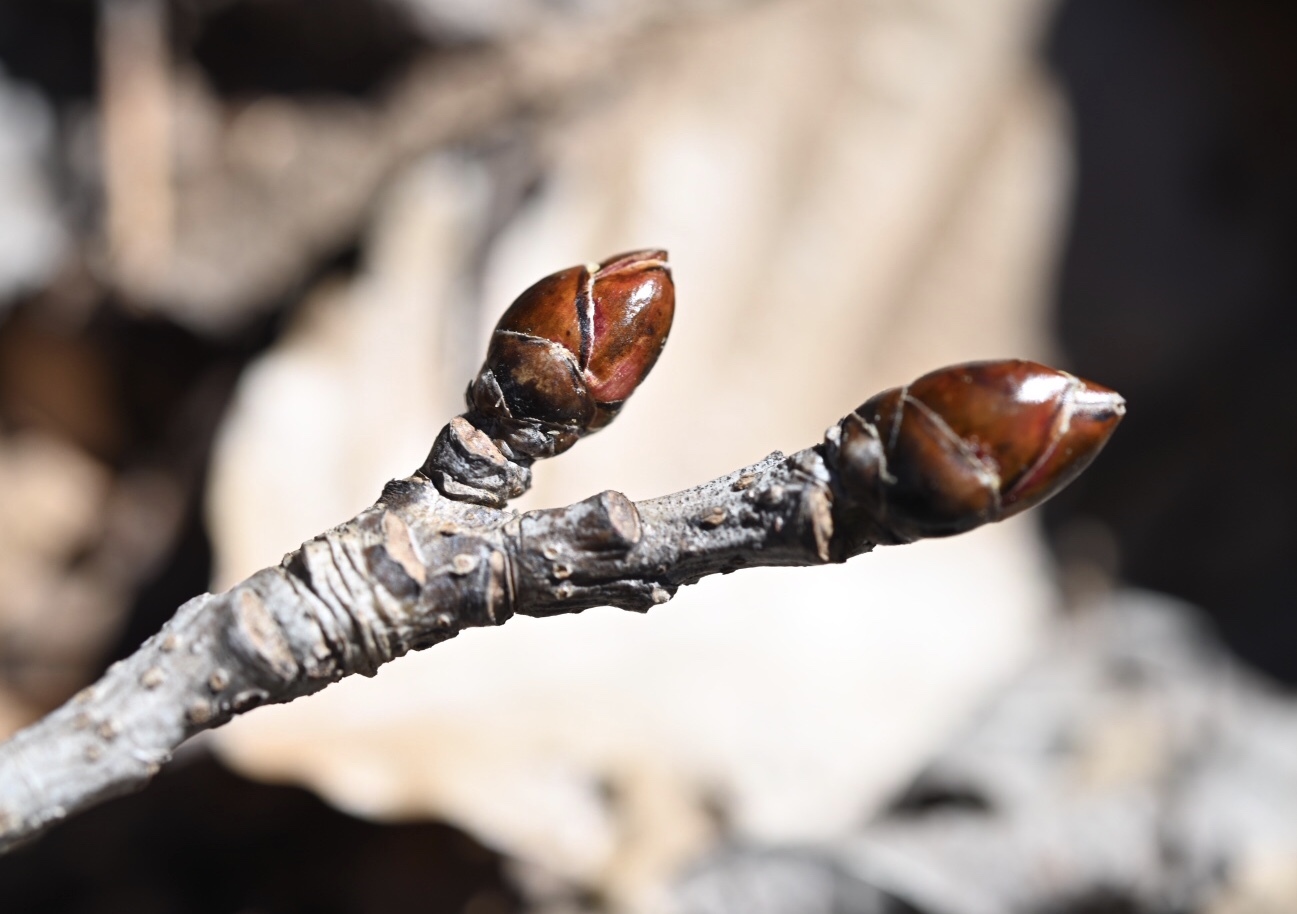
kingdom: Plantae
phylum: Tracheophyta
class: Magnoliopsida
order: Saxifragales
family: Altingiaceae
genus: Liquidambar
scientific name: Liquidambar styraciflua
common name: Sweet gum
